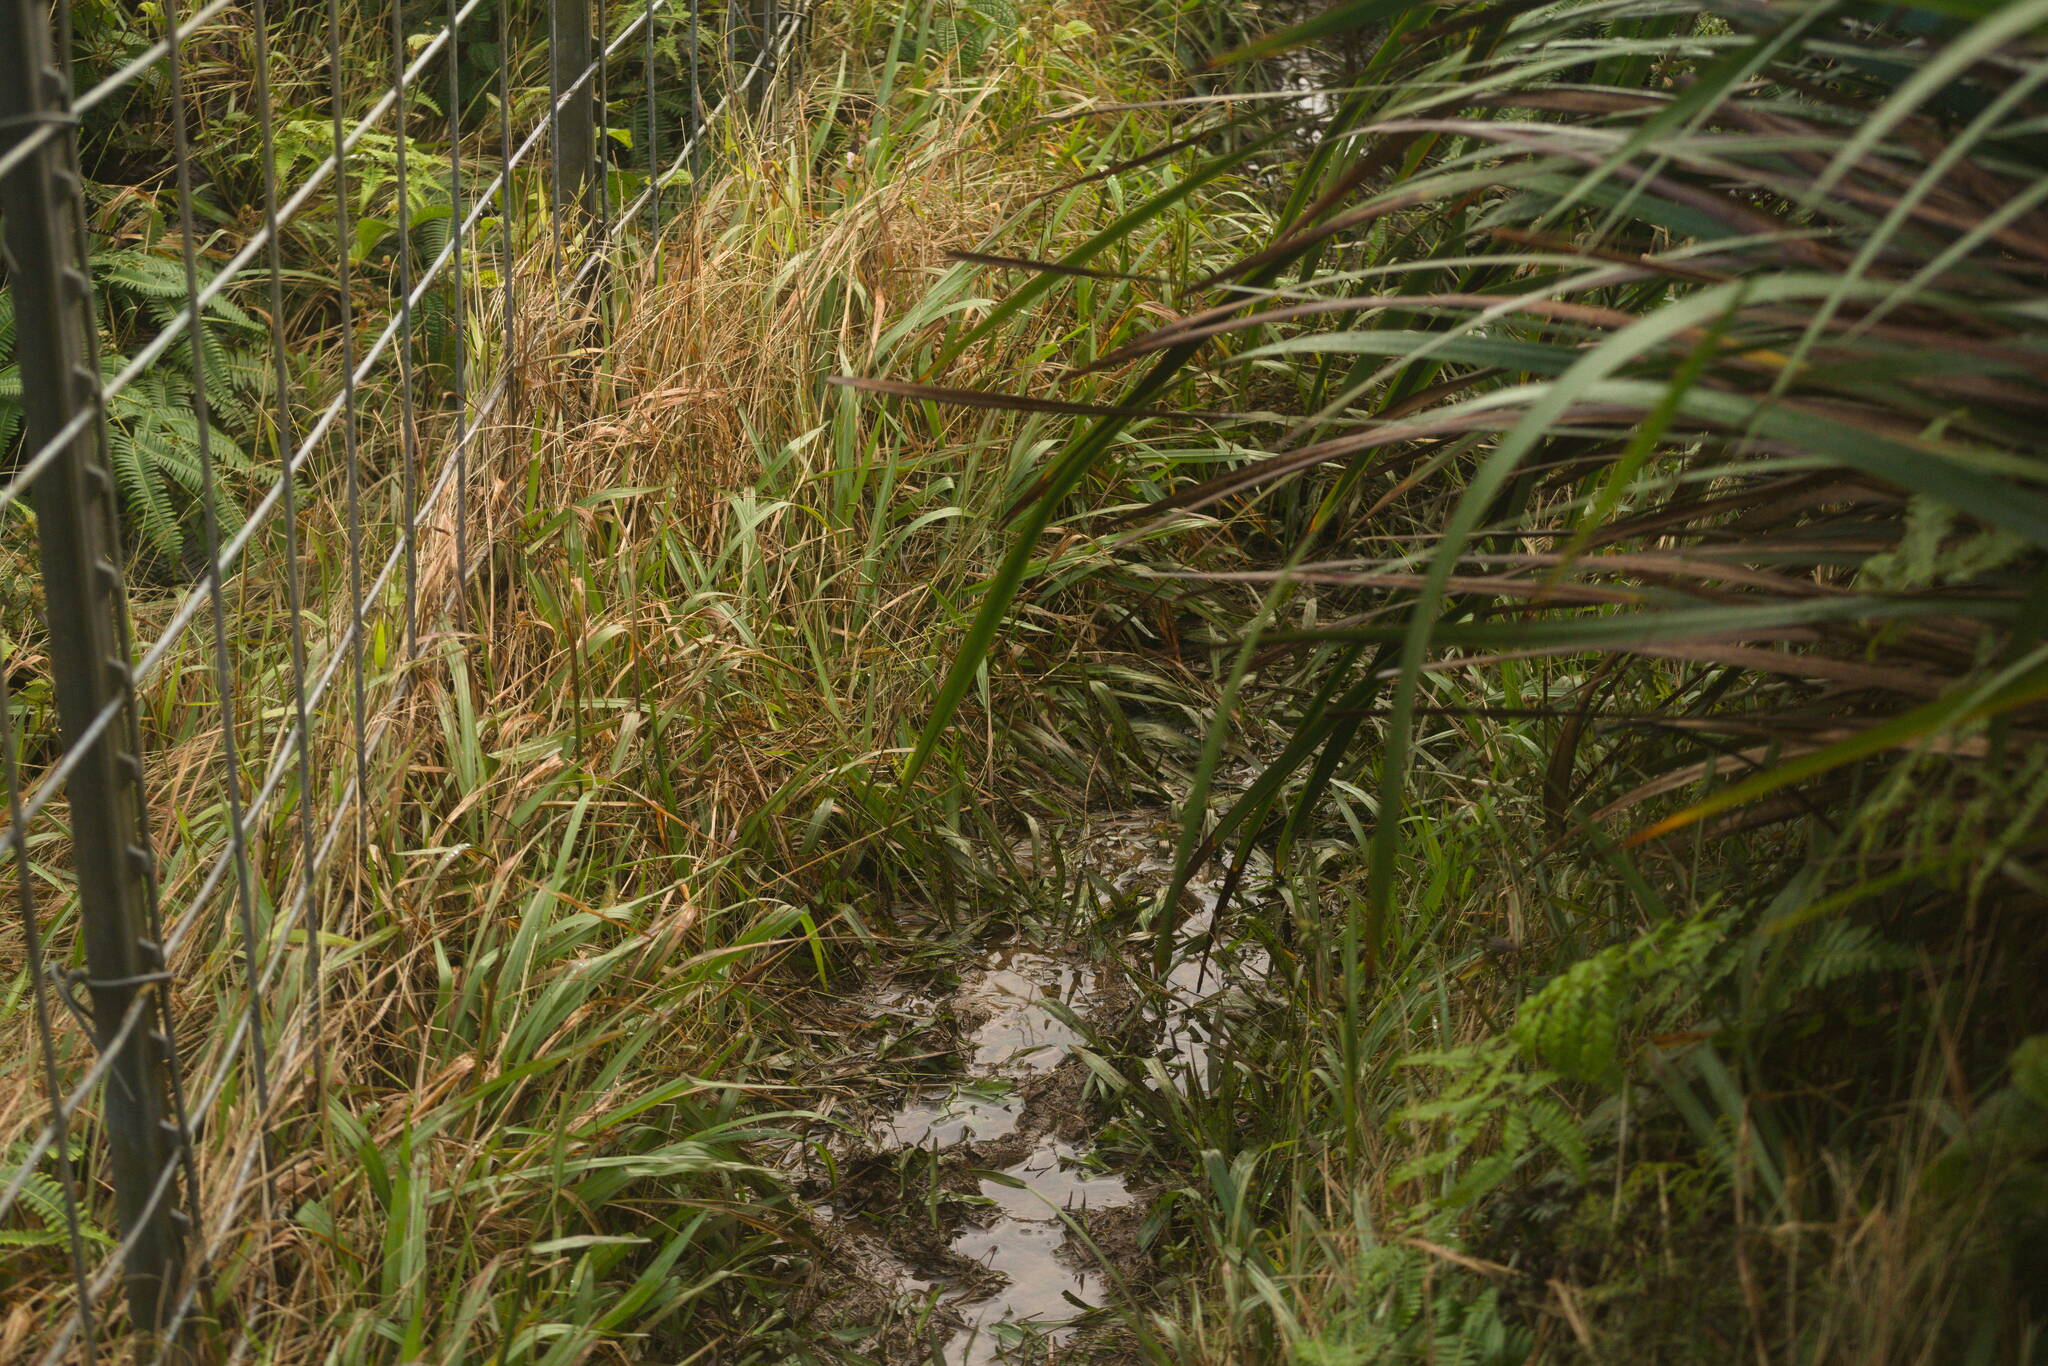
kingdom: Plantae
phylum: Tracheophyta
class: Liliopsida
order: Poales
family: Cyperaceae
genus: Machaerina
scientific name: Machaerina angustifolia
